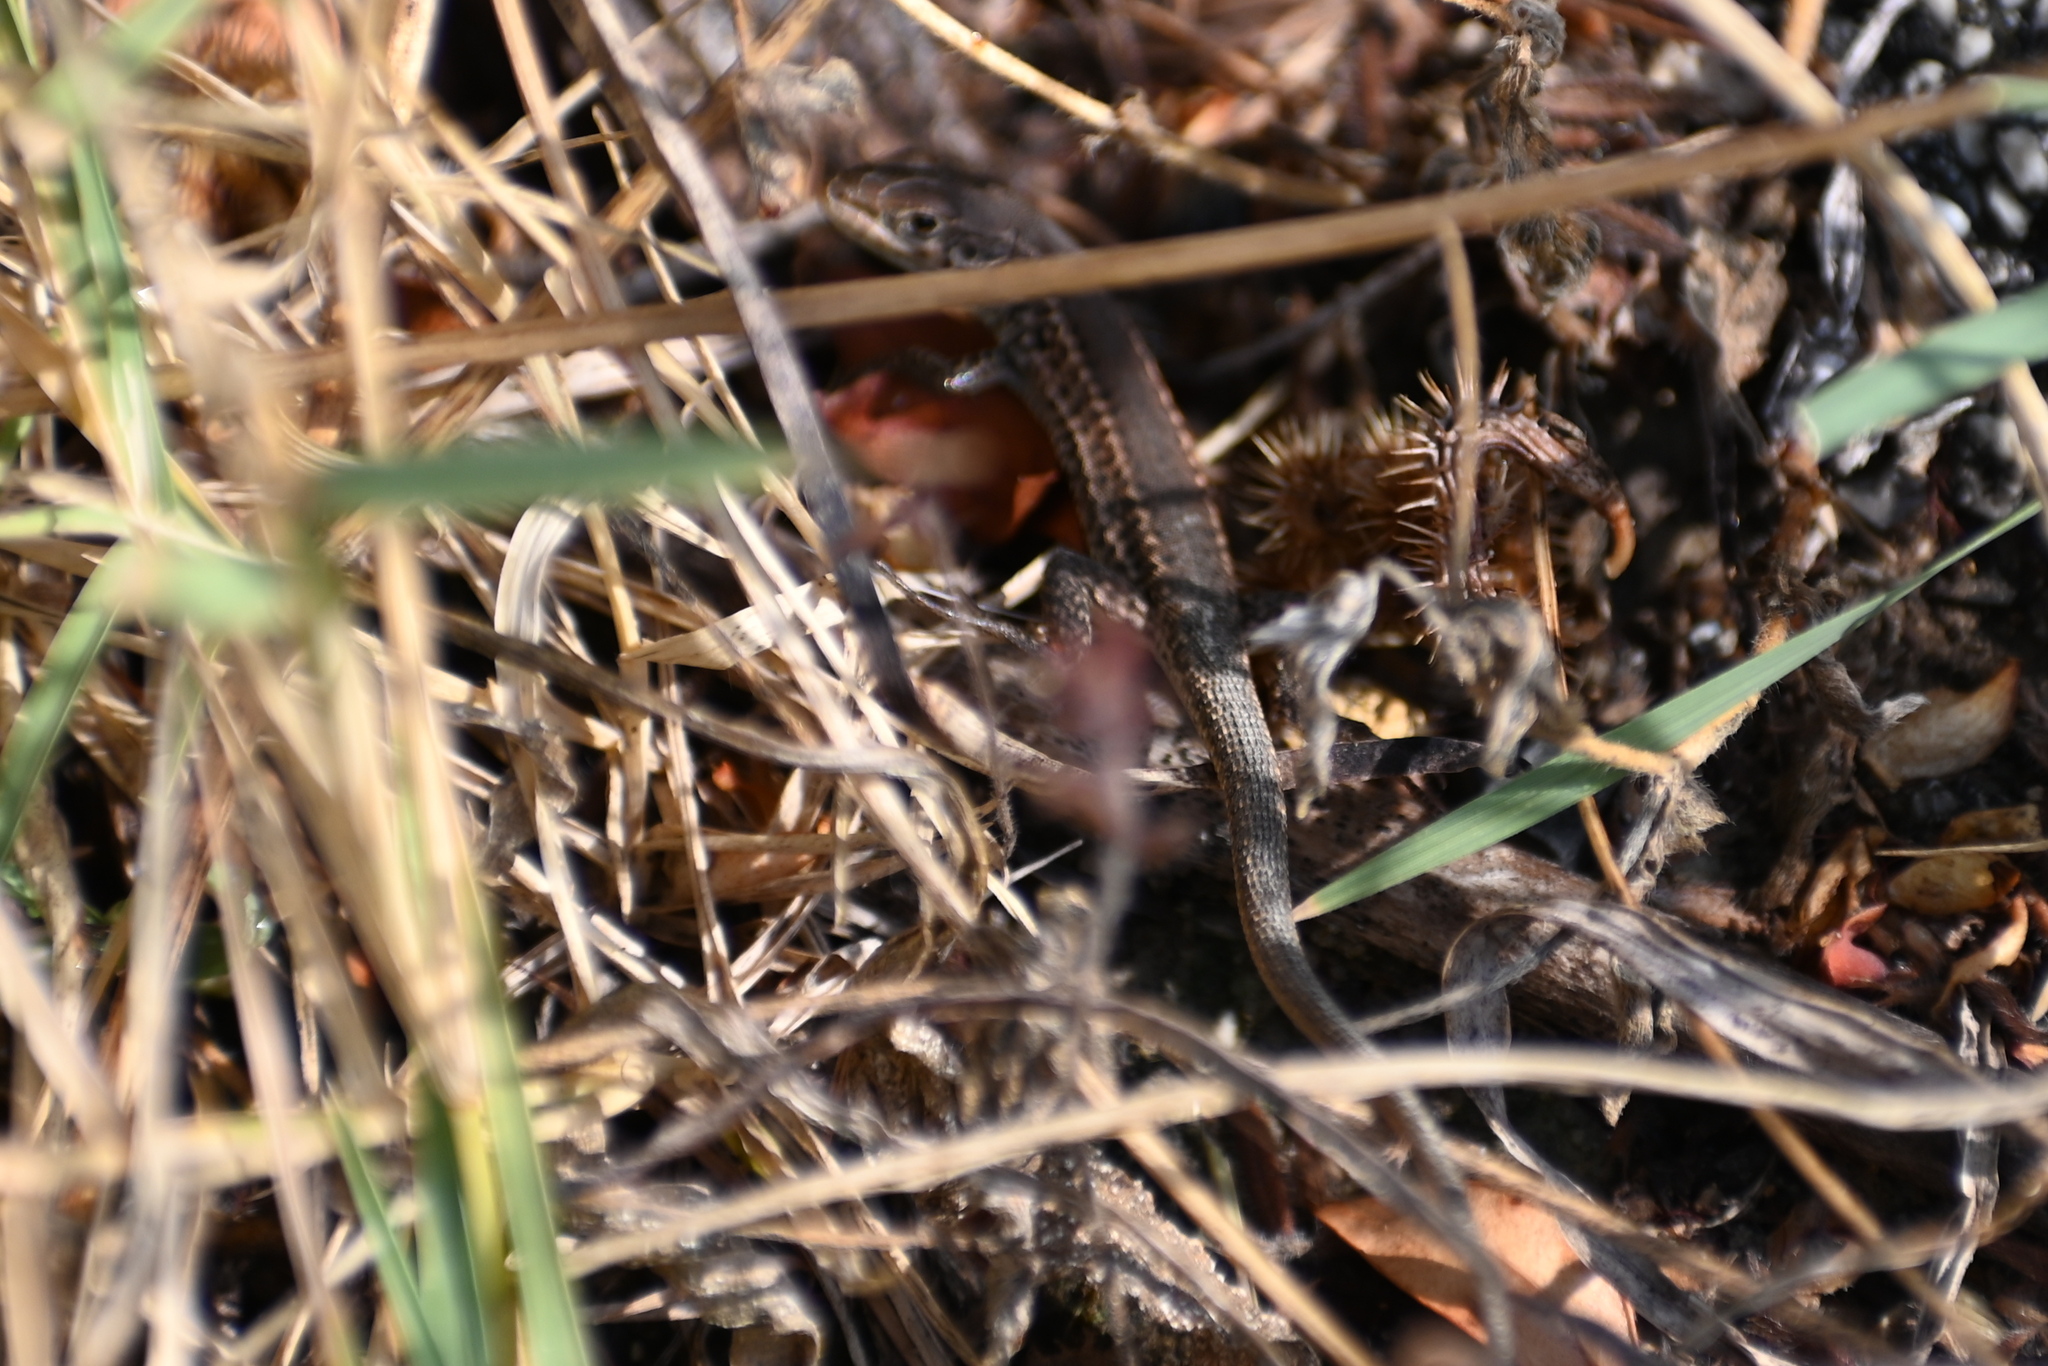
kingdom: Animalia
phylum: Chordata
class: Squamata
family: Lacertidae
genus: Algyroides
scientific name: Algyroides nigropunctatus
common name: Blue-throated keeled lizard
